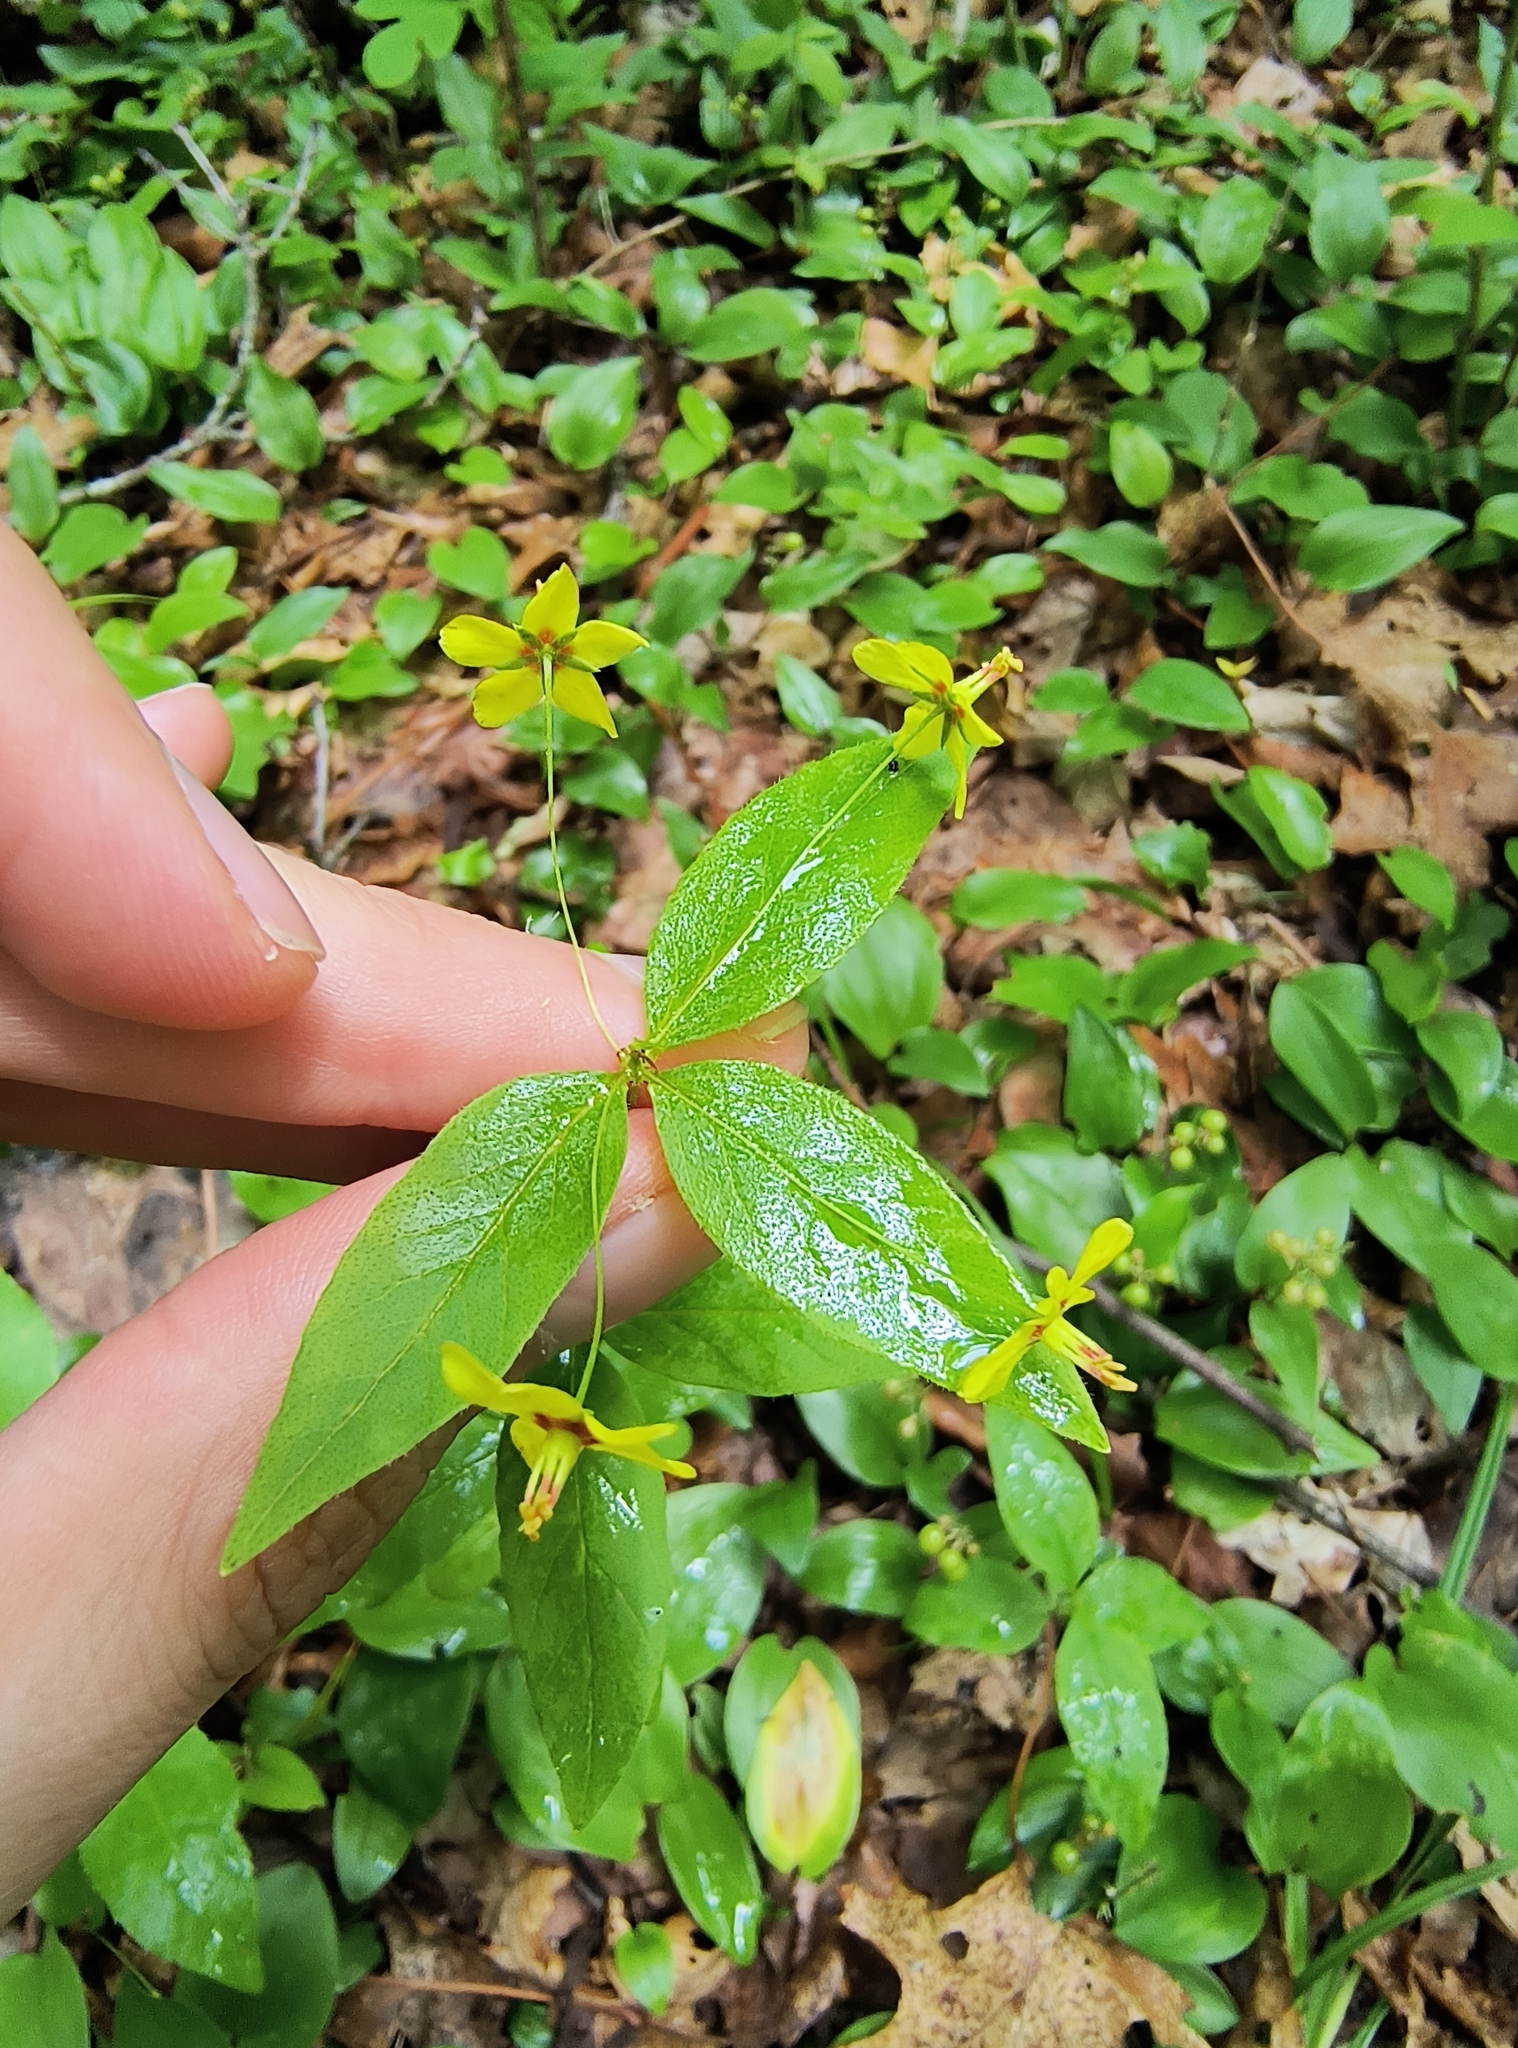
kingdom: Plantae
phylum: Tracheophyta
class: Magnoliopsida
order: Ericales
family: Primulaceae
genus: Lysimachia
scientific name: Lysimachia quadrifolia
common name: Whorled loosestrife
